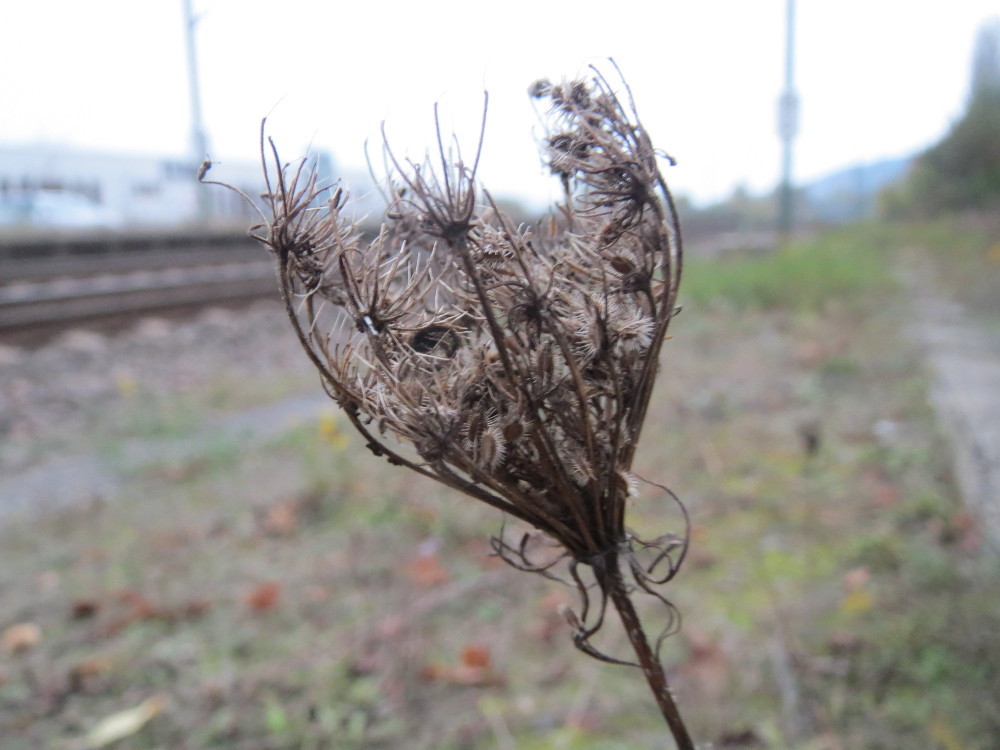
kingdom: Plantae
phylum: Tracheophyta
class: Magnoliopsida
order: Apiales
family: Apiaceae
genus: Daucus
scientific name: Daucus carota
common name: Wild carrot
